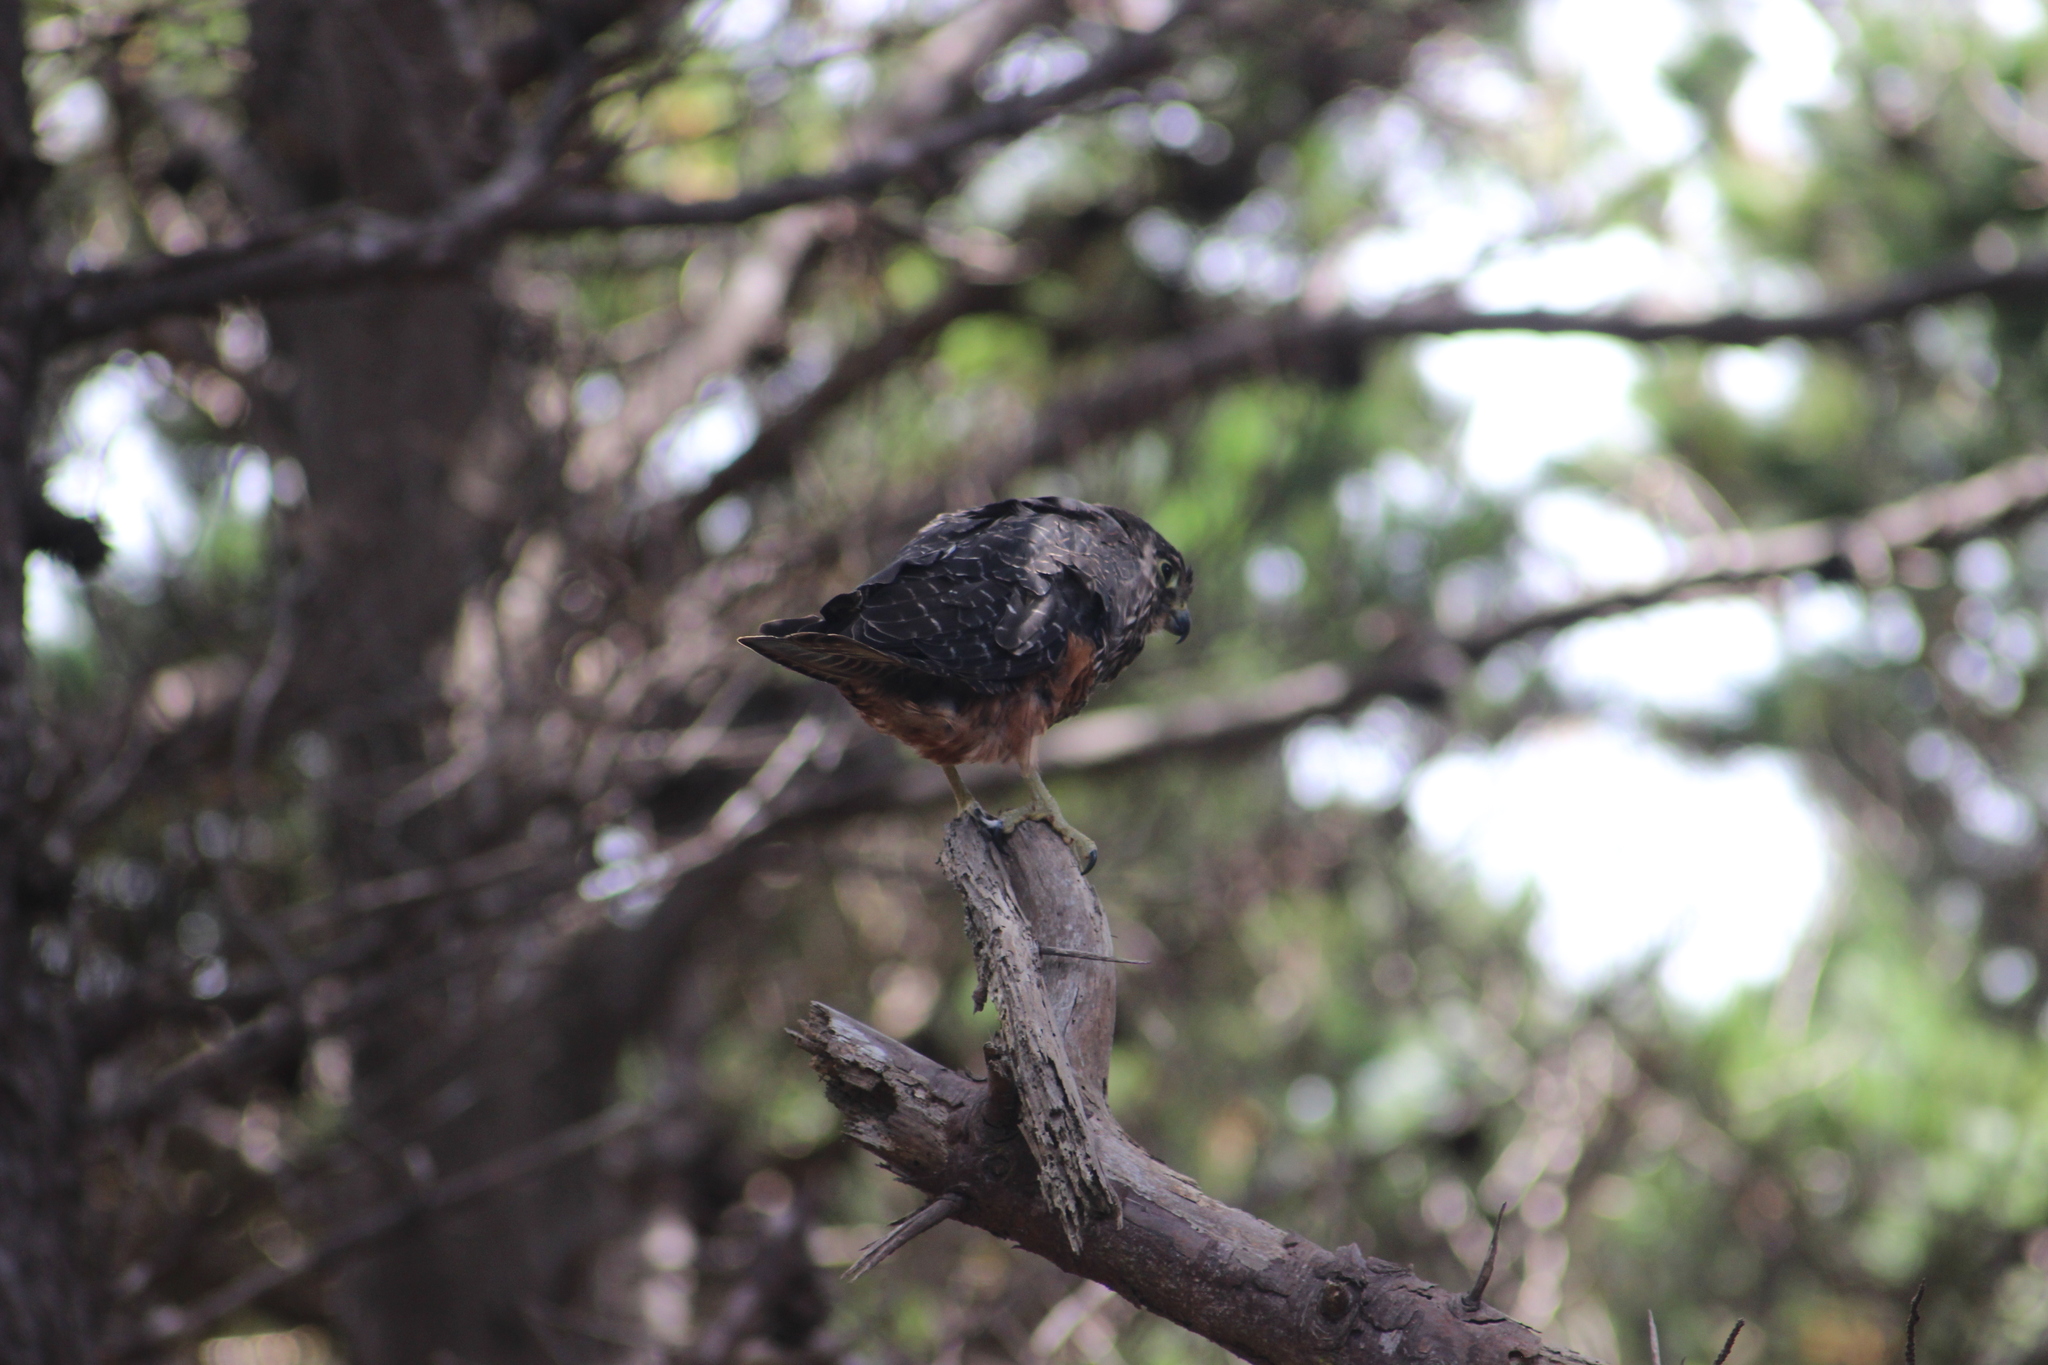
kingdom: Animalia
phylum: Chordata
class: Aves
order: Falconiformes
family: Falconidae
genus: Falco
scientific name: Falco novaeseelandiae
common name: New zealand falcon
